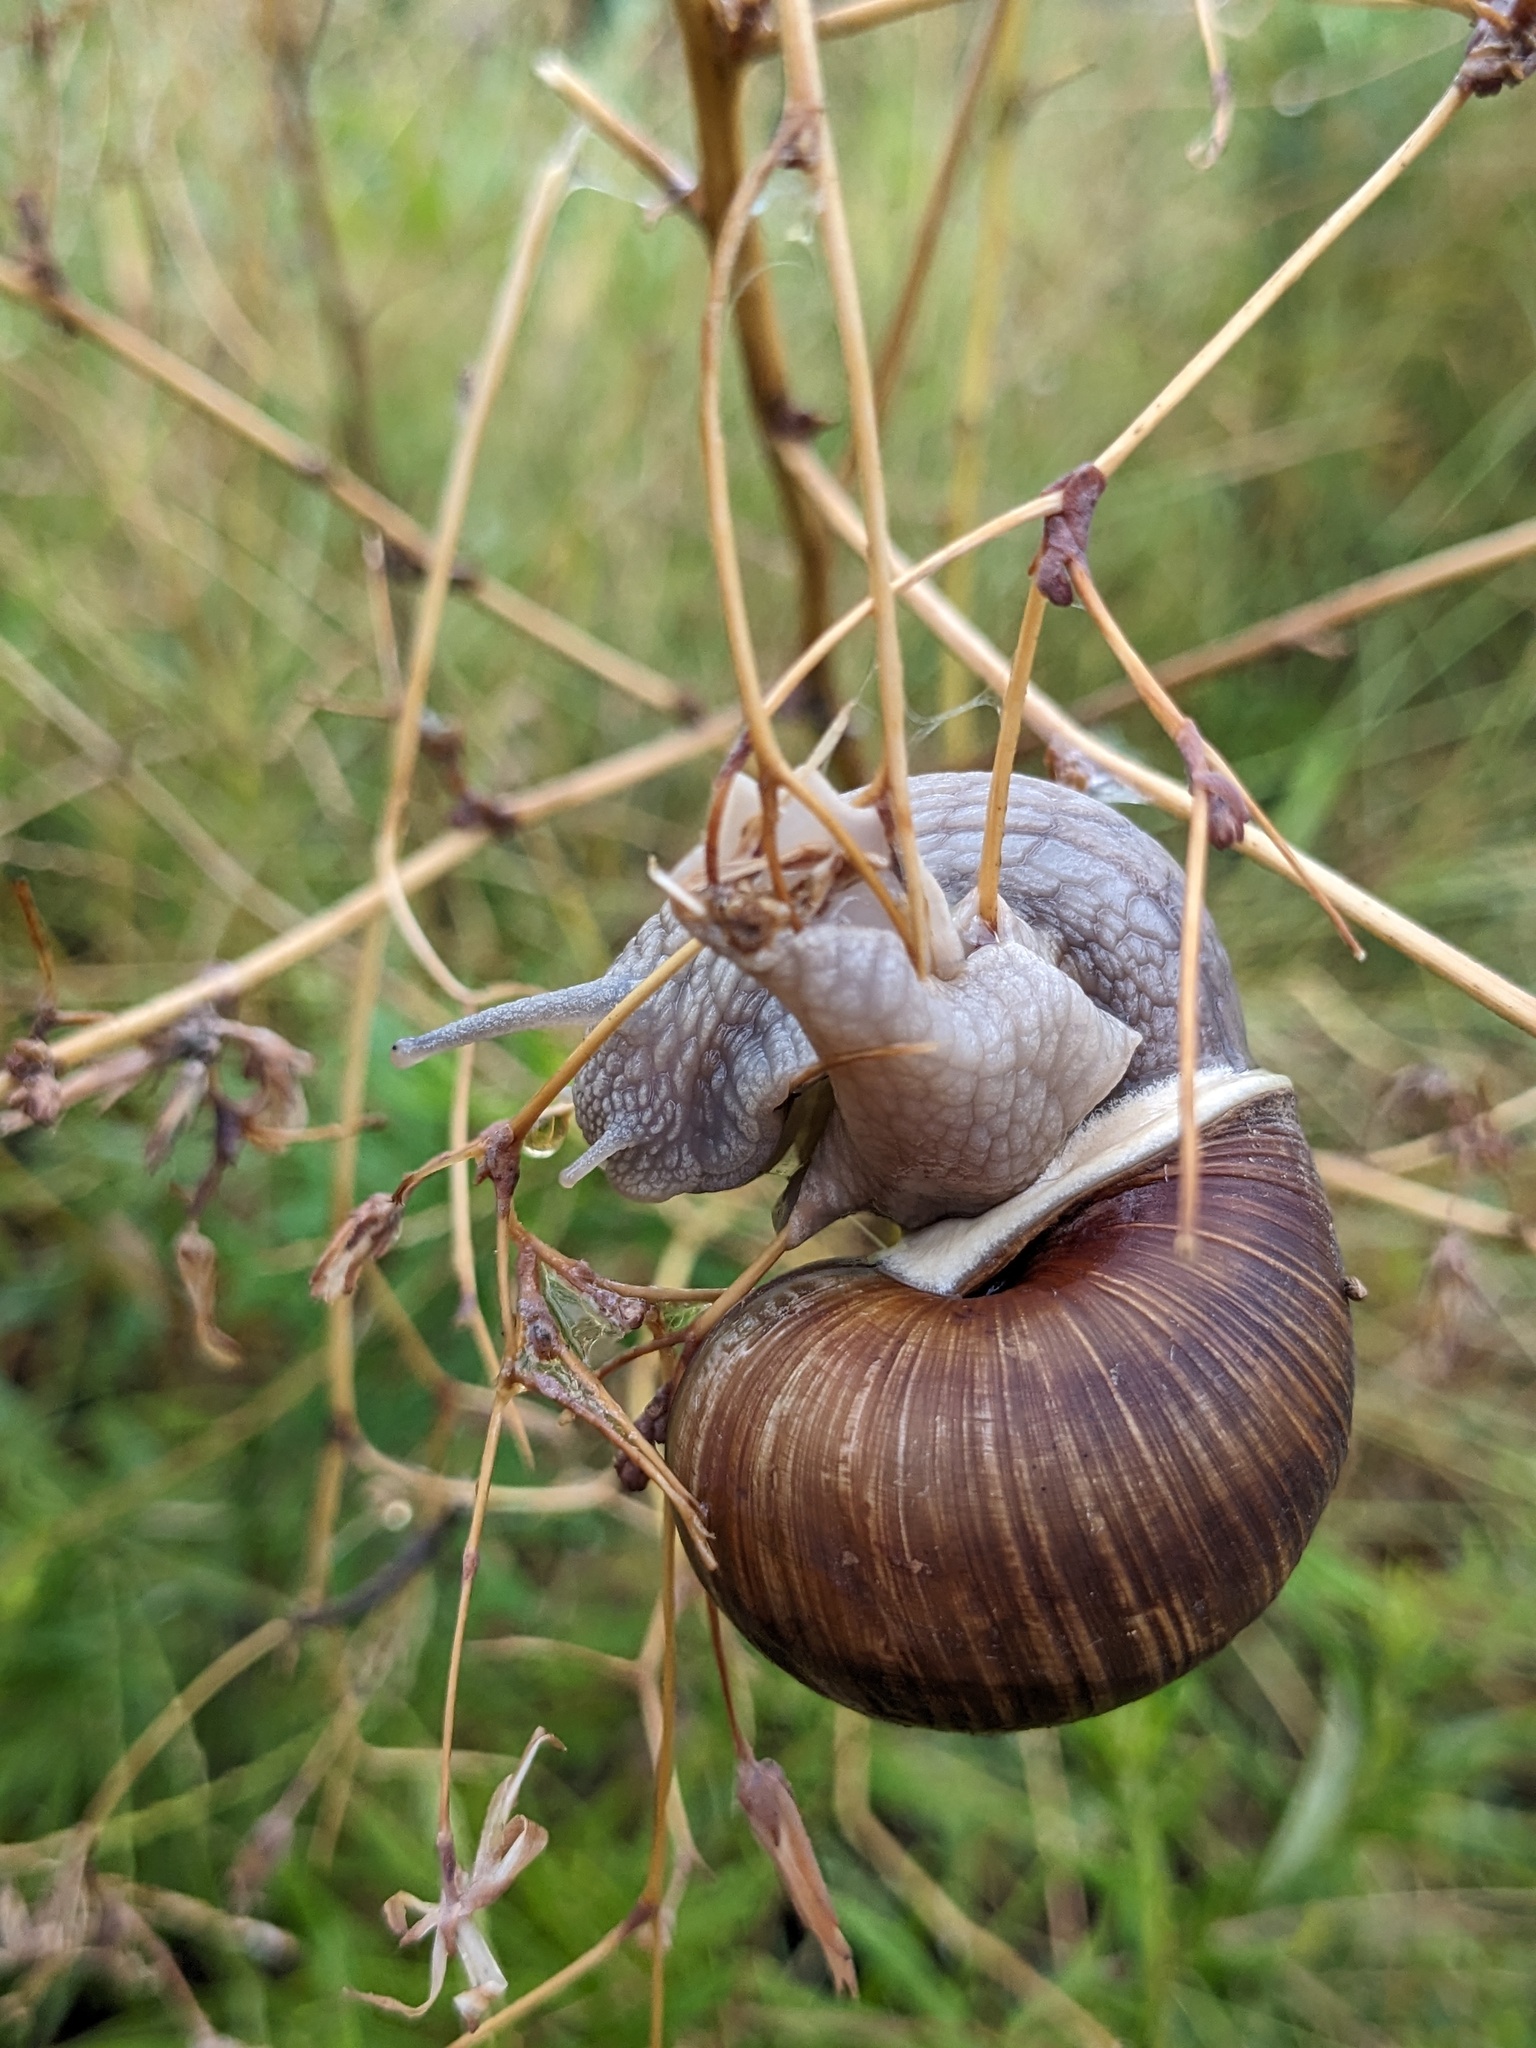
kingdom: Animalia
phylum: Mollusca
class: Gastropoda
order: Stylommatophora
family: Helicidae
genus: Helix
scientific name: Helix pomatia
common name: Roman snail
